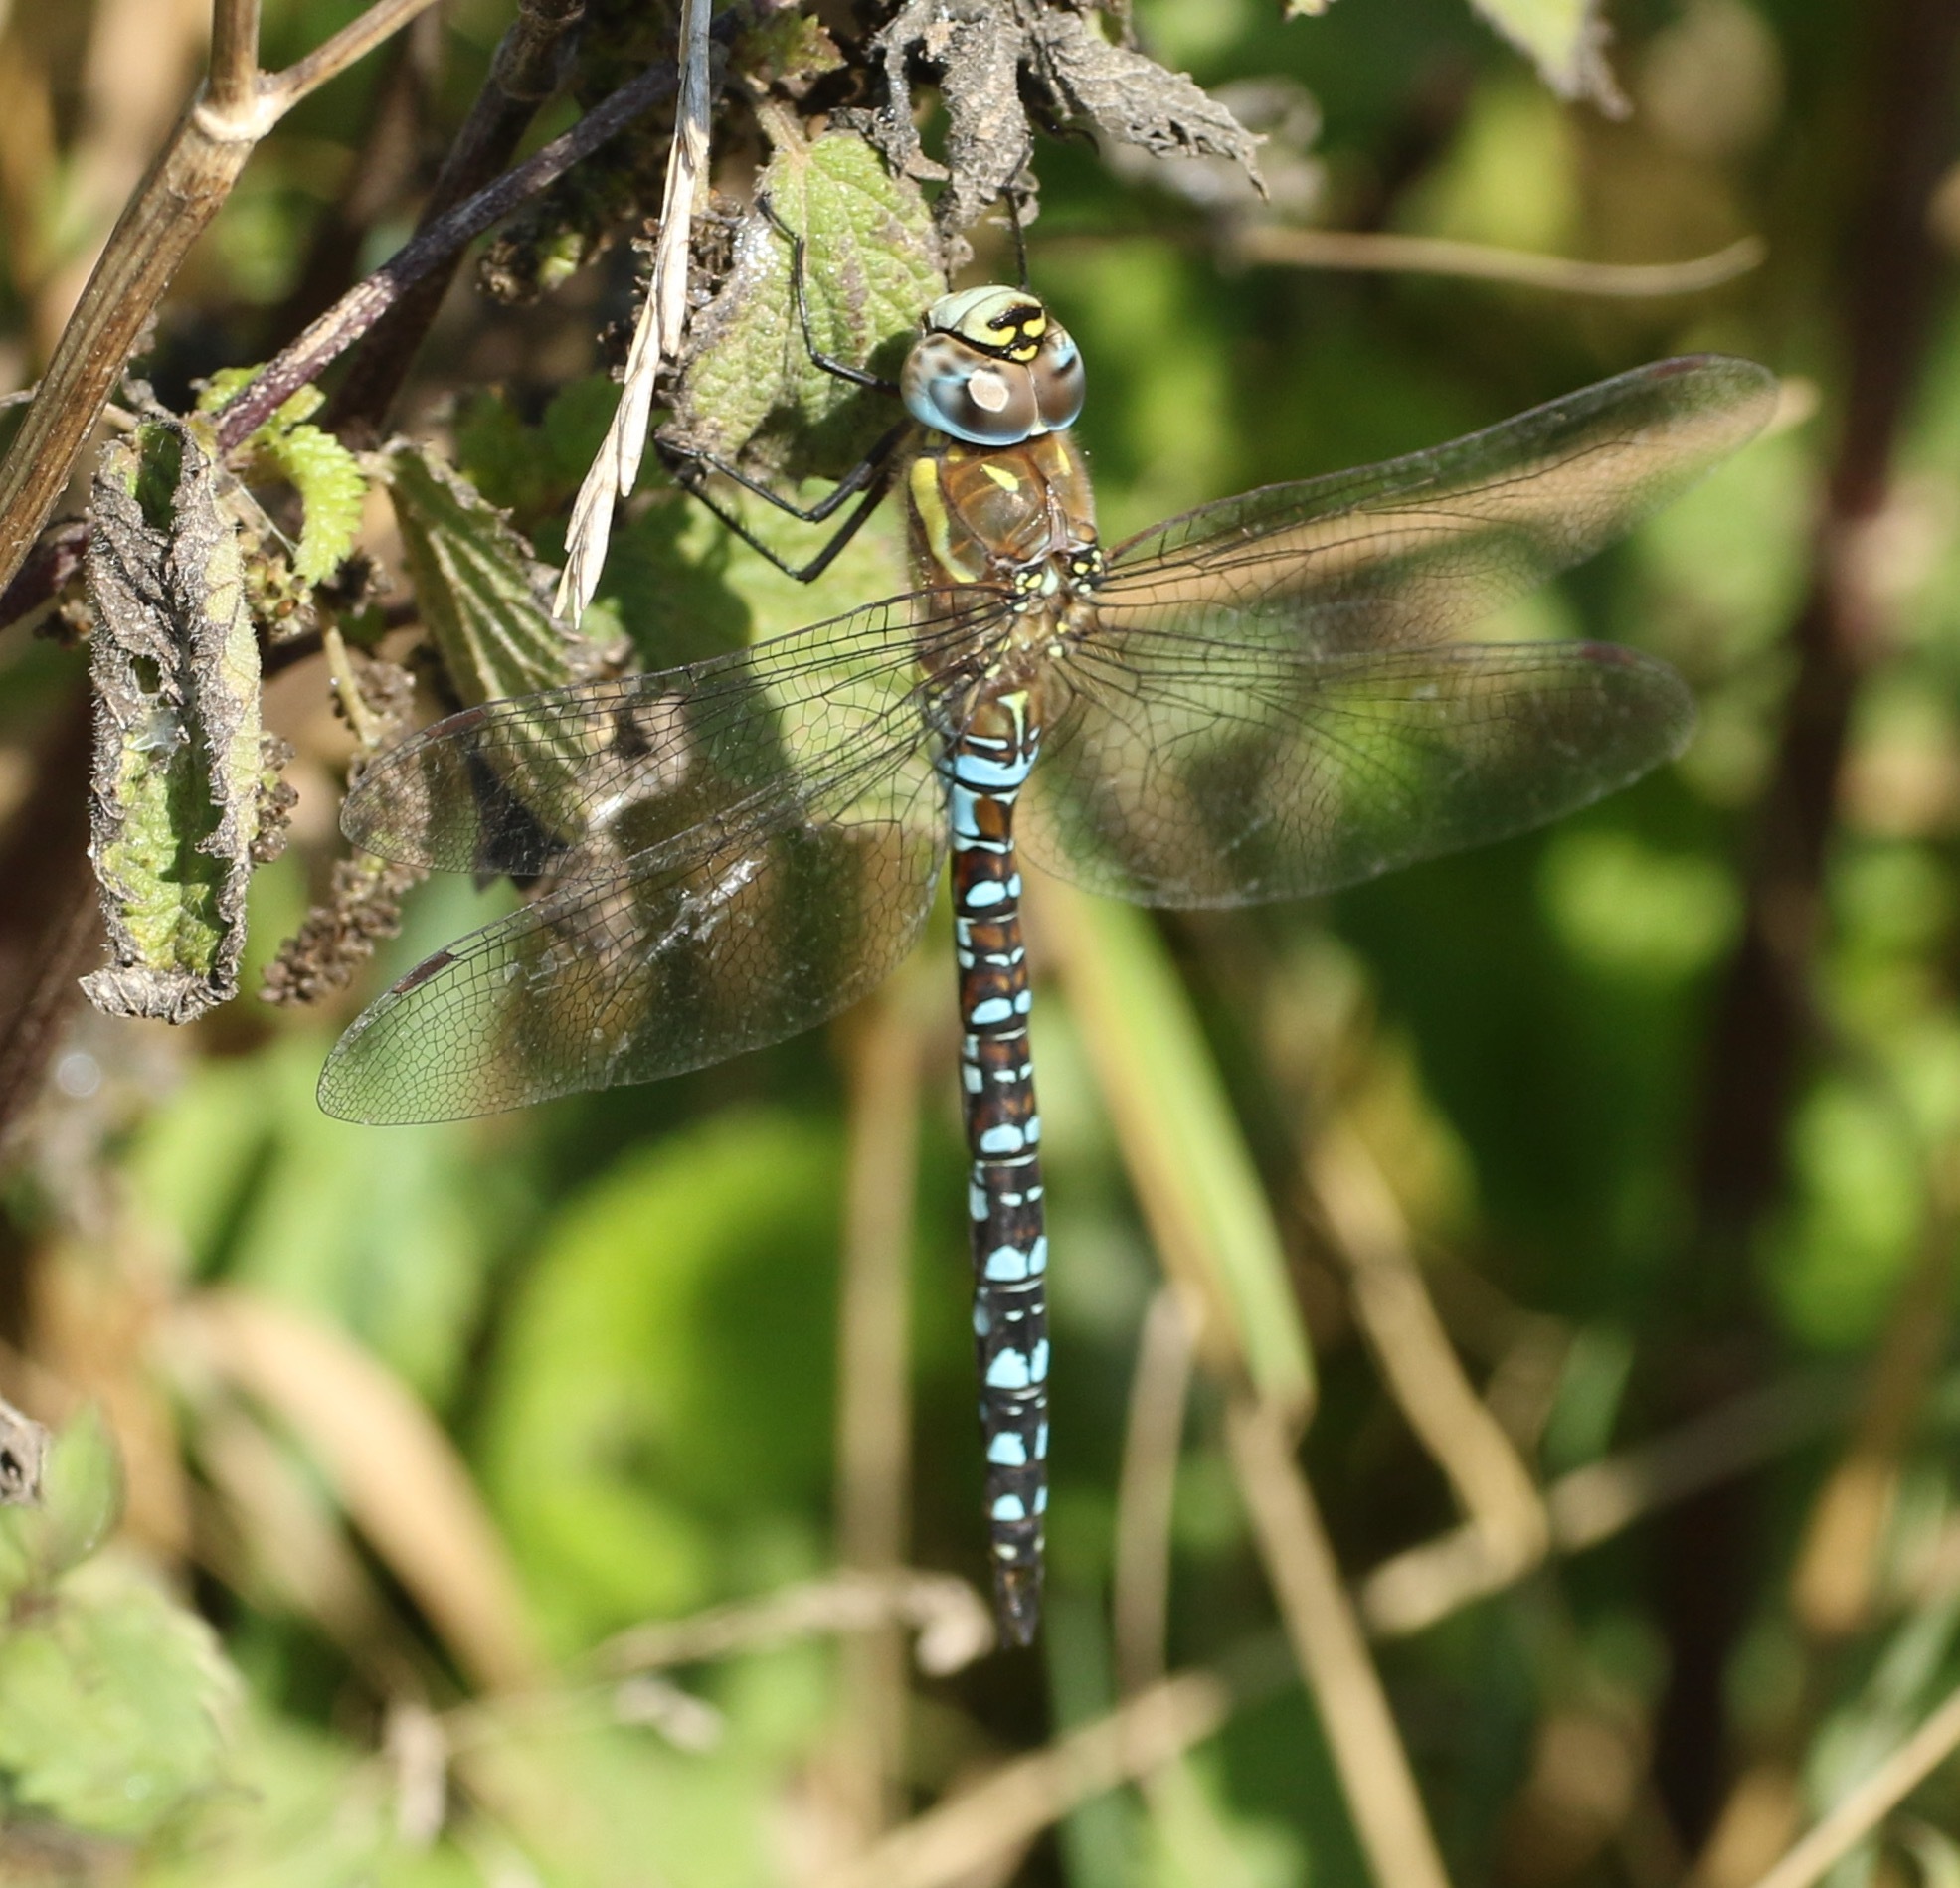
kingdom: Animalia
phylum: Arthropoda
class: Insecta
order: Odonata
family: Aeshnidae
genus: Aeshna
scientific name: Aeshna mixta
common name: Migrant hawker
